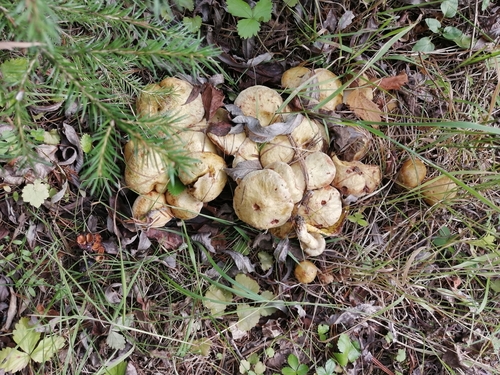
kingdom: Fungi
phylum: Basidiomycota
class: Agaricomycetes
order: Boletales
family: Suillaceae
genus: Suillus
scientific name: Suillus americanus
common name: Chicken fat mushroom
